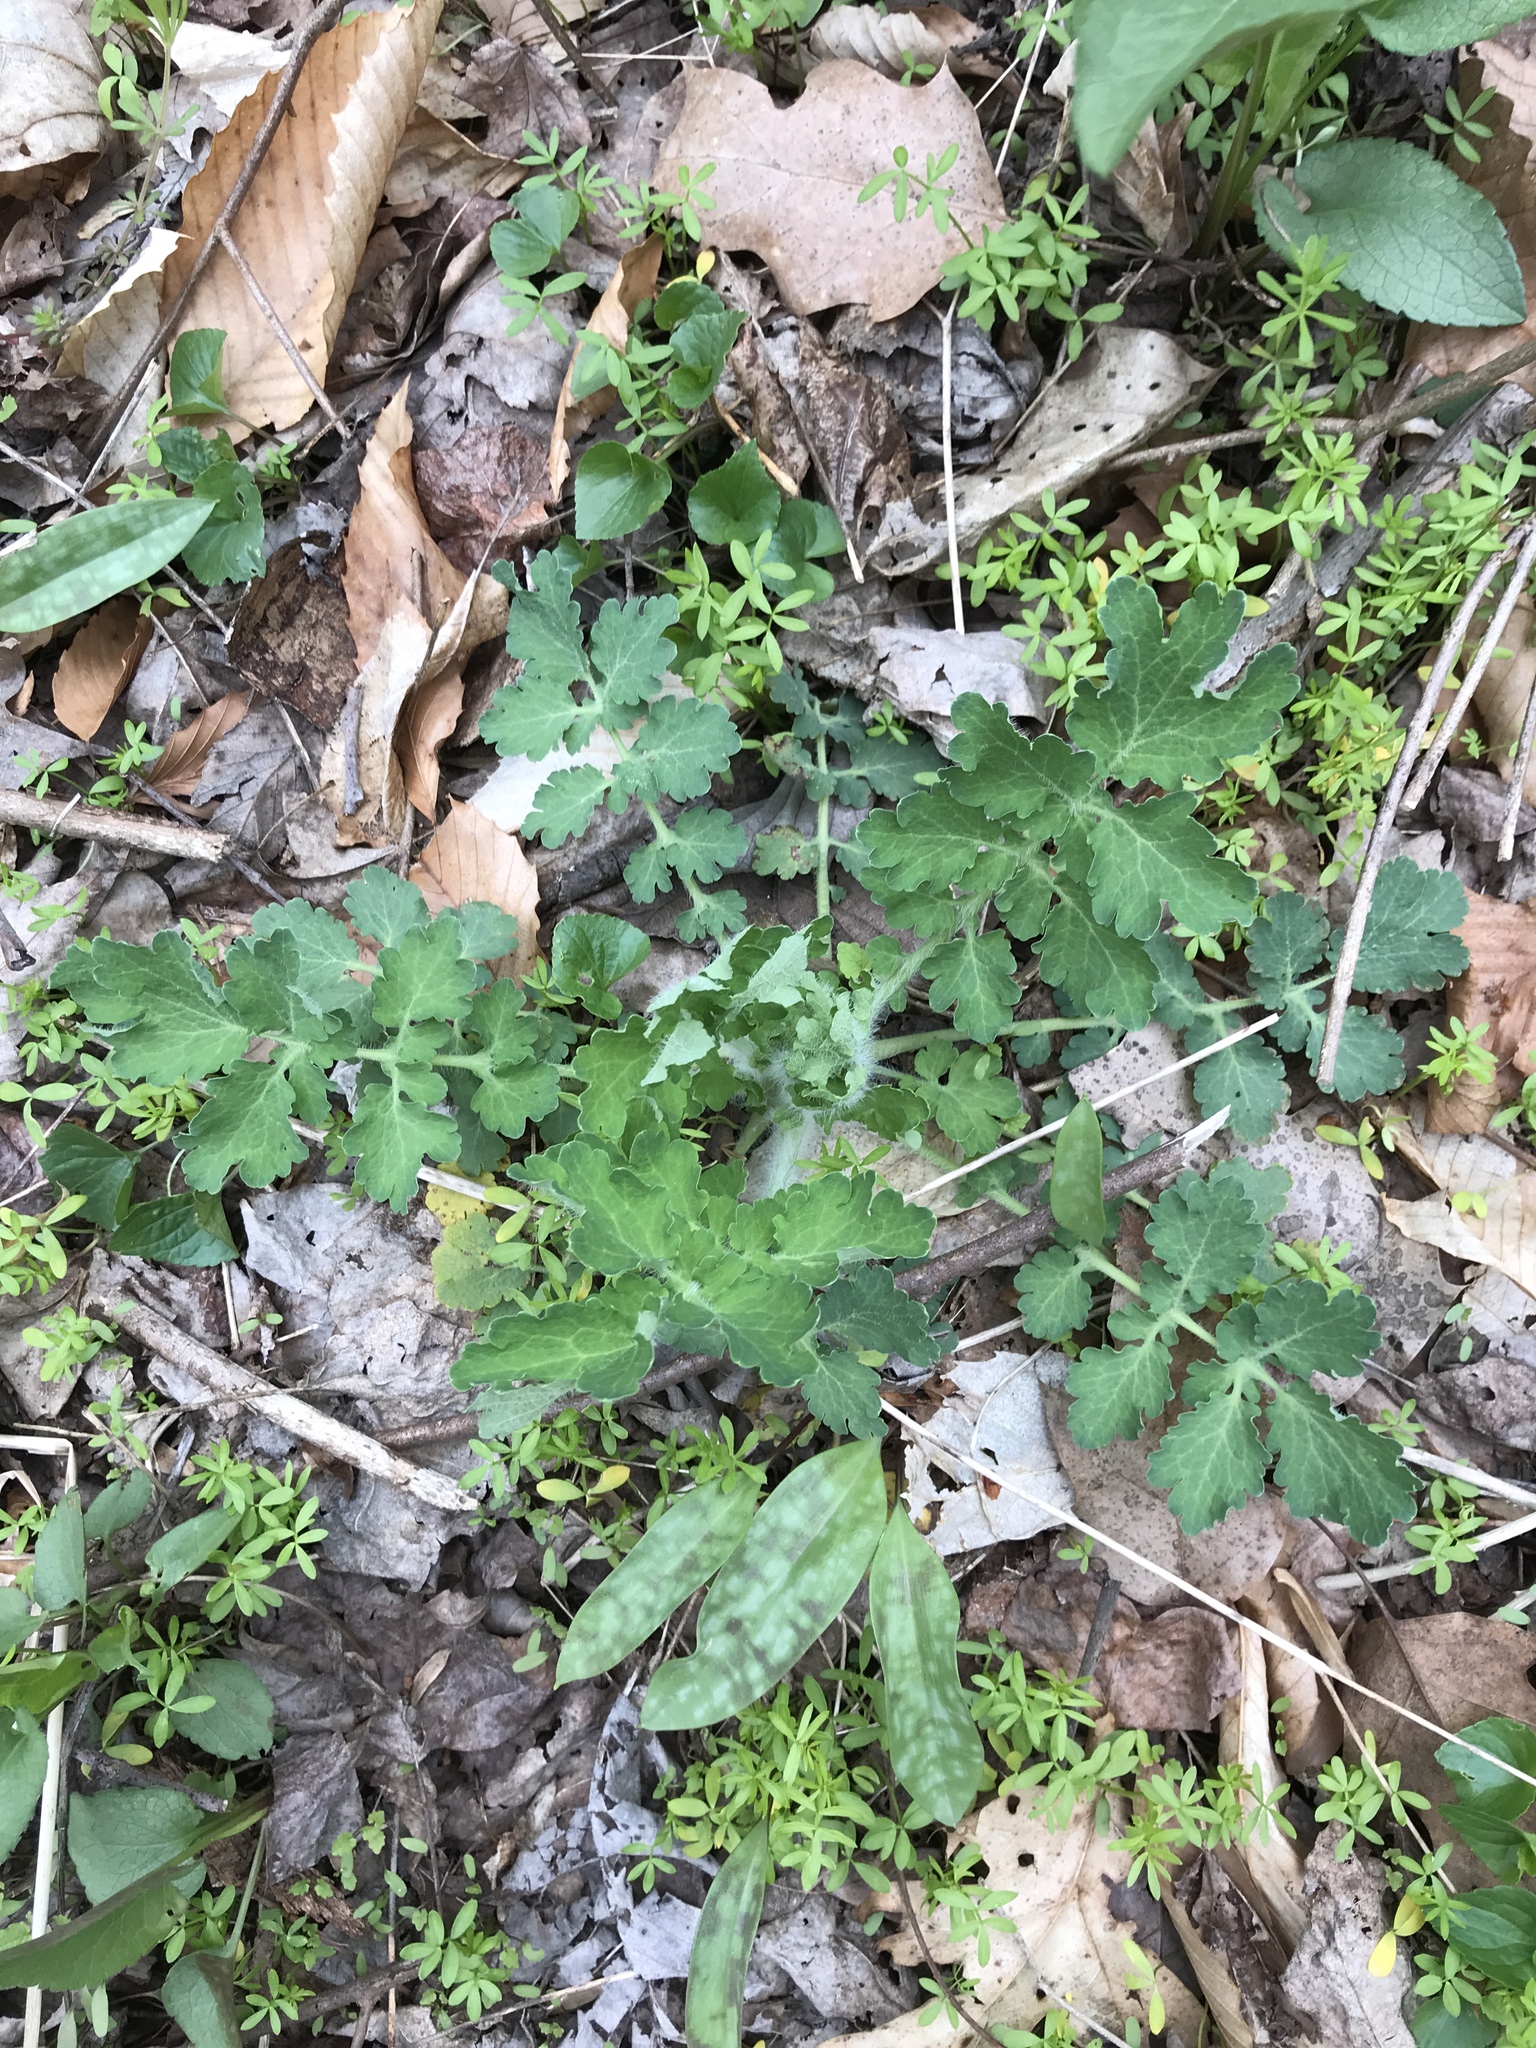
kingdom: Plantae
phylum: Tracheophyta
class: Magnoliopsida
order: Ranunculales
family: Papaveraceae
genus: Chelidonium
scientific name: Chelidonium majus
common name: Greater celandine
